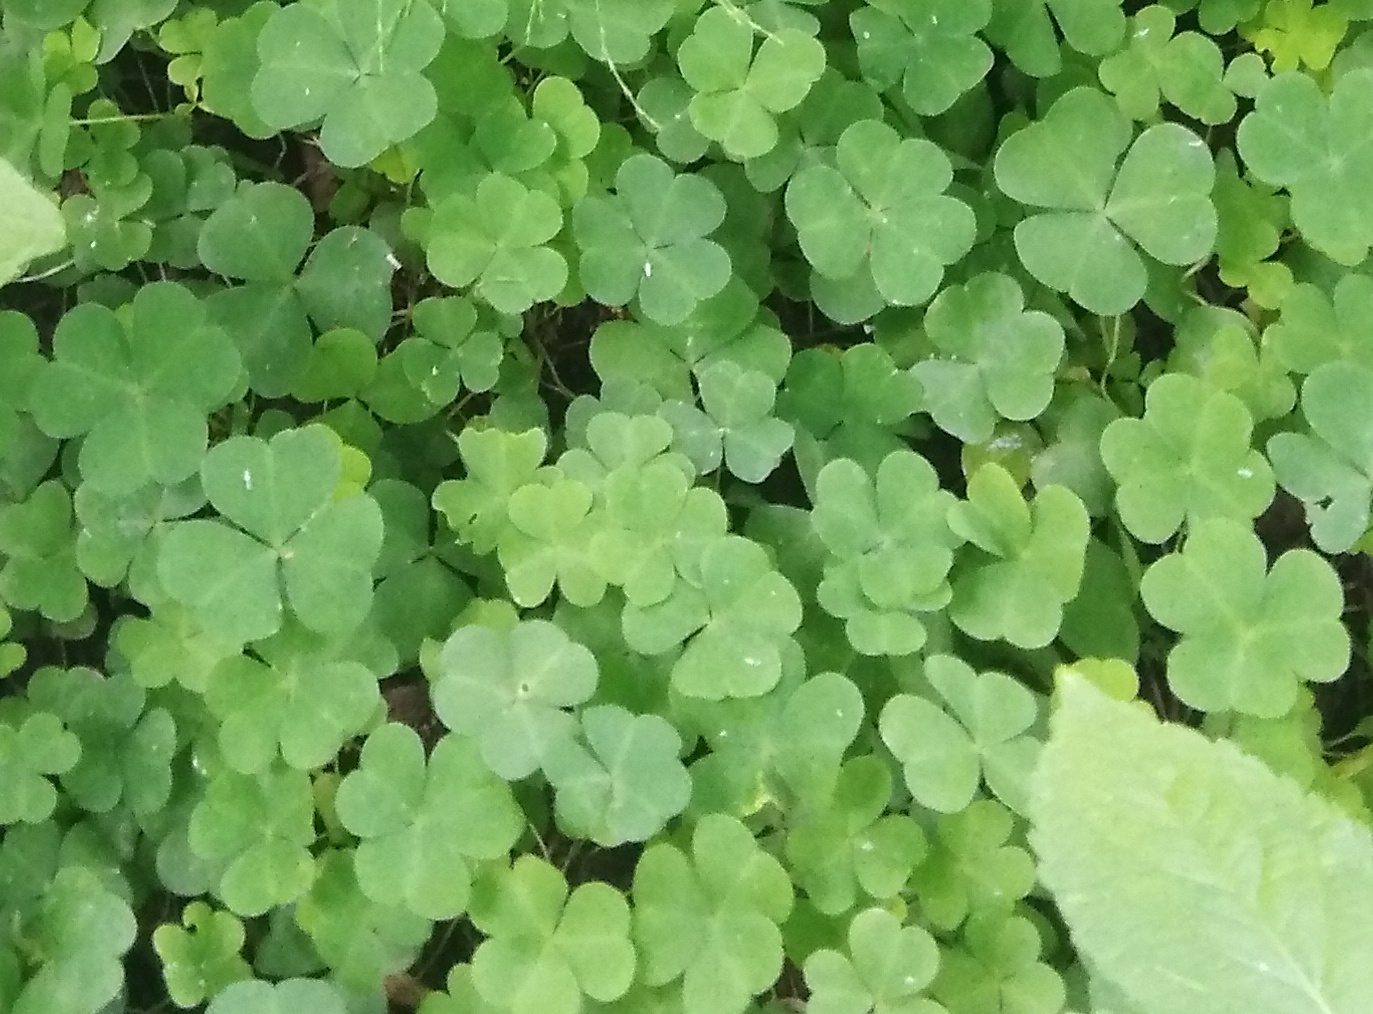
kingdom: Plantae
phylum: Tracheophyta
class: Magnoliopsida
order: Oxalidales
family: Oxalidaceae
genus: Oxalis
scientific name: Oxalis acetosella
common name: Wood-sorrel
